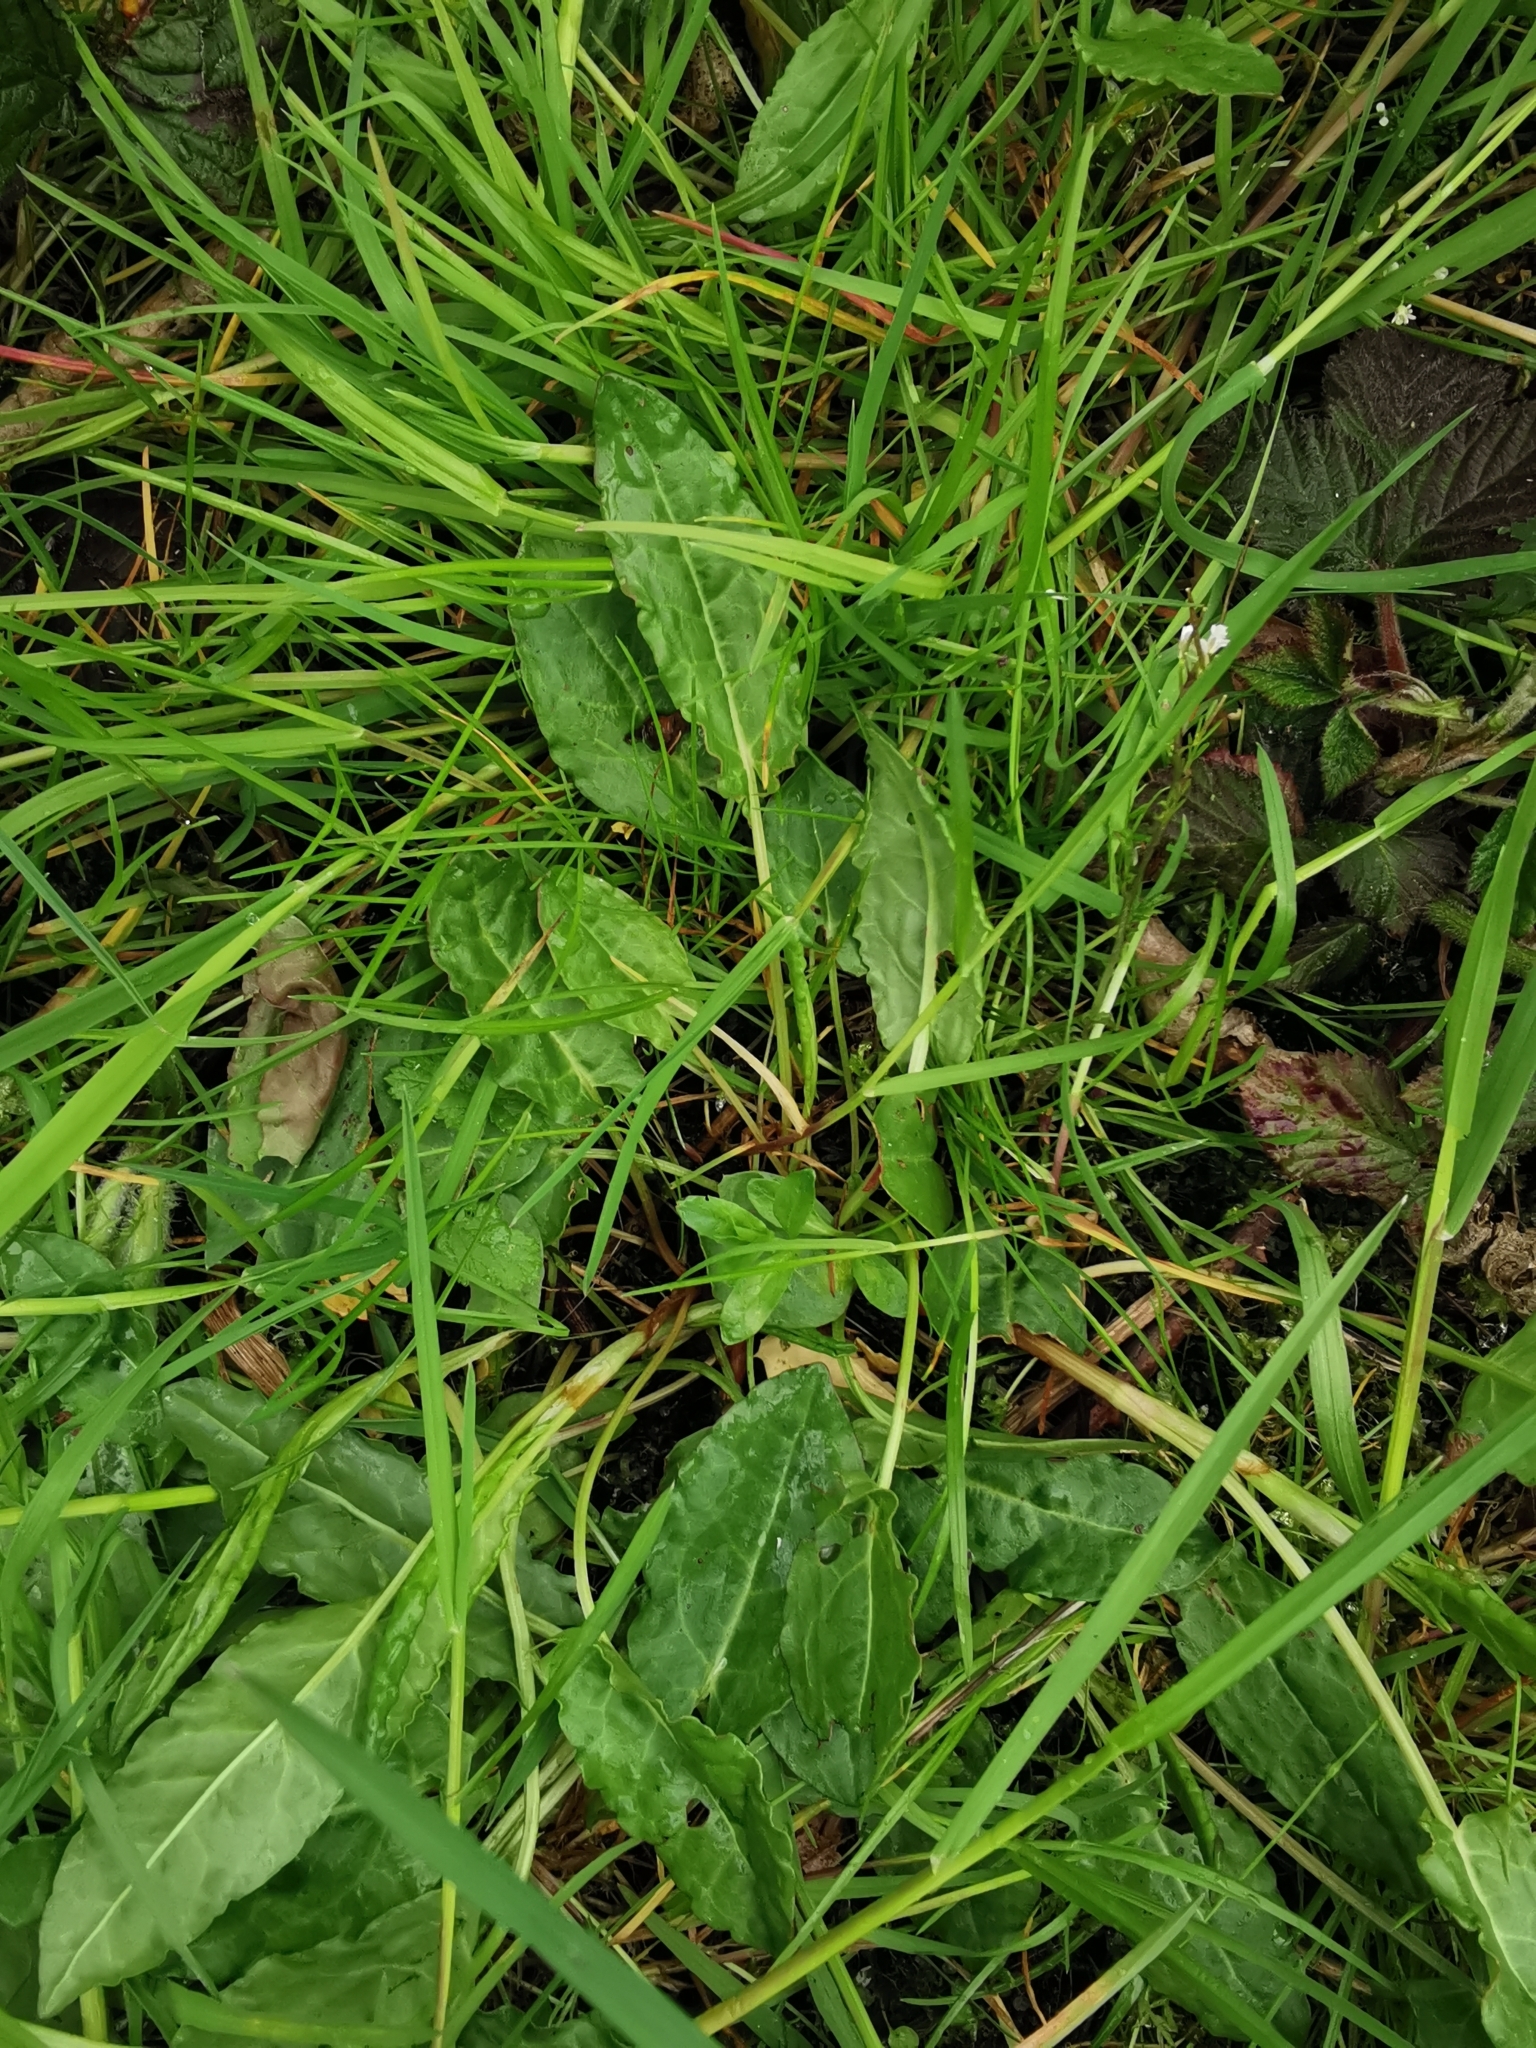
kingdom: Plantae
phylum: Tracheophyta
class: Magnoliopsida
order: Caryophyllales
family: Polygonaceae
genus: Rumex
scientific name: Rumex acetosa
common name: Garden sorrel
